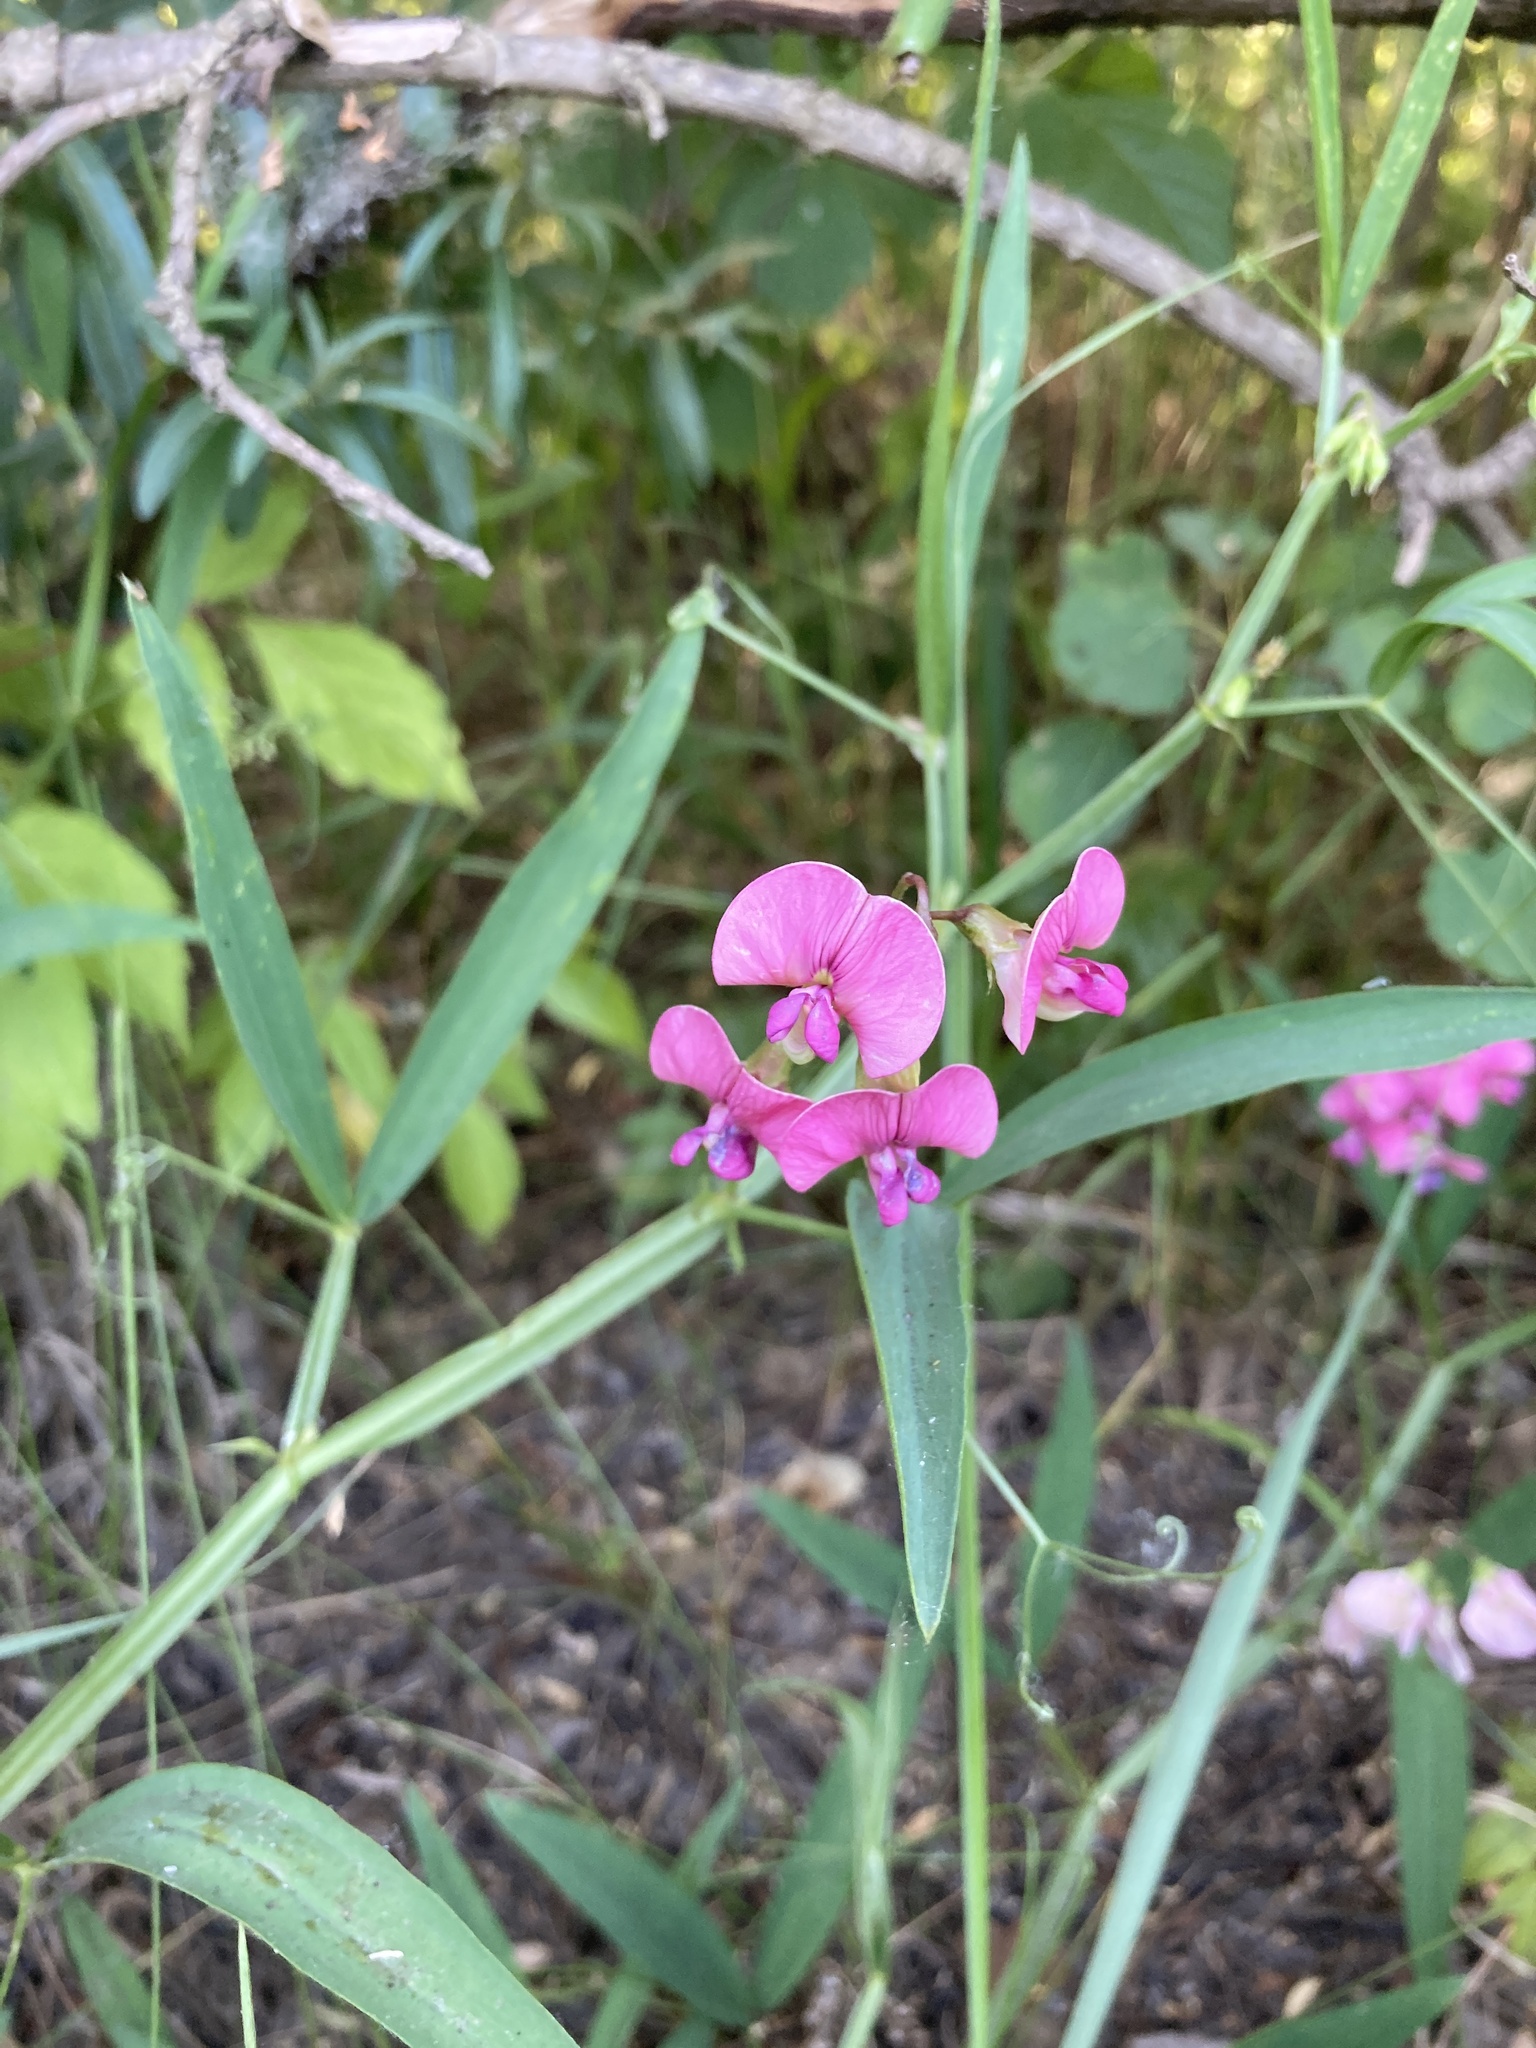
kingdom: Plantae
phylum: Tracheophyta
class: Magnoliopsida
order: Fabales
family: Fabaceae
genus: Lathyrus
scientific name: Lathyrus sylvestris
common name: Flat pea
